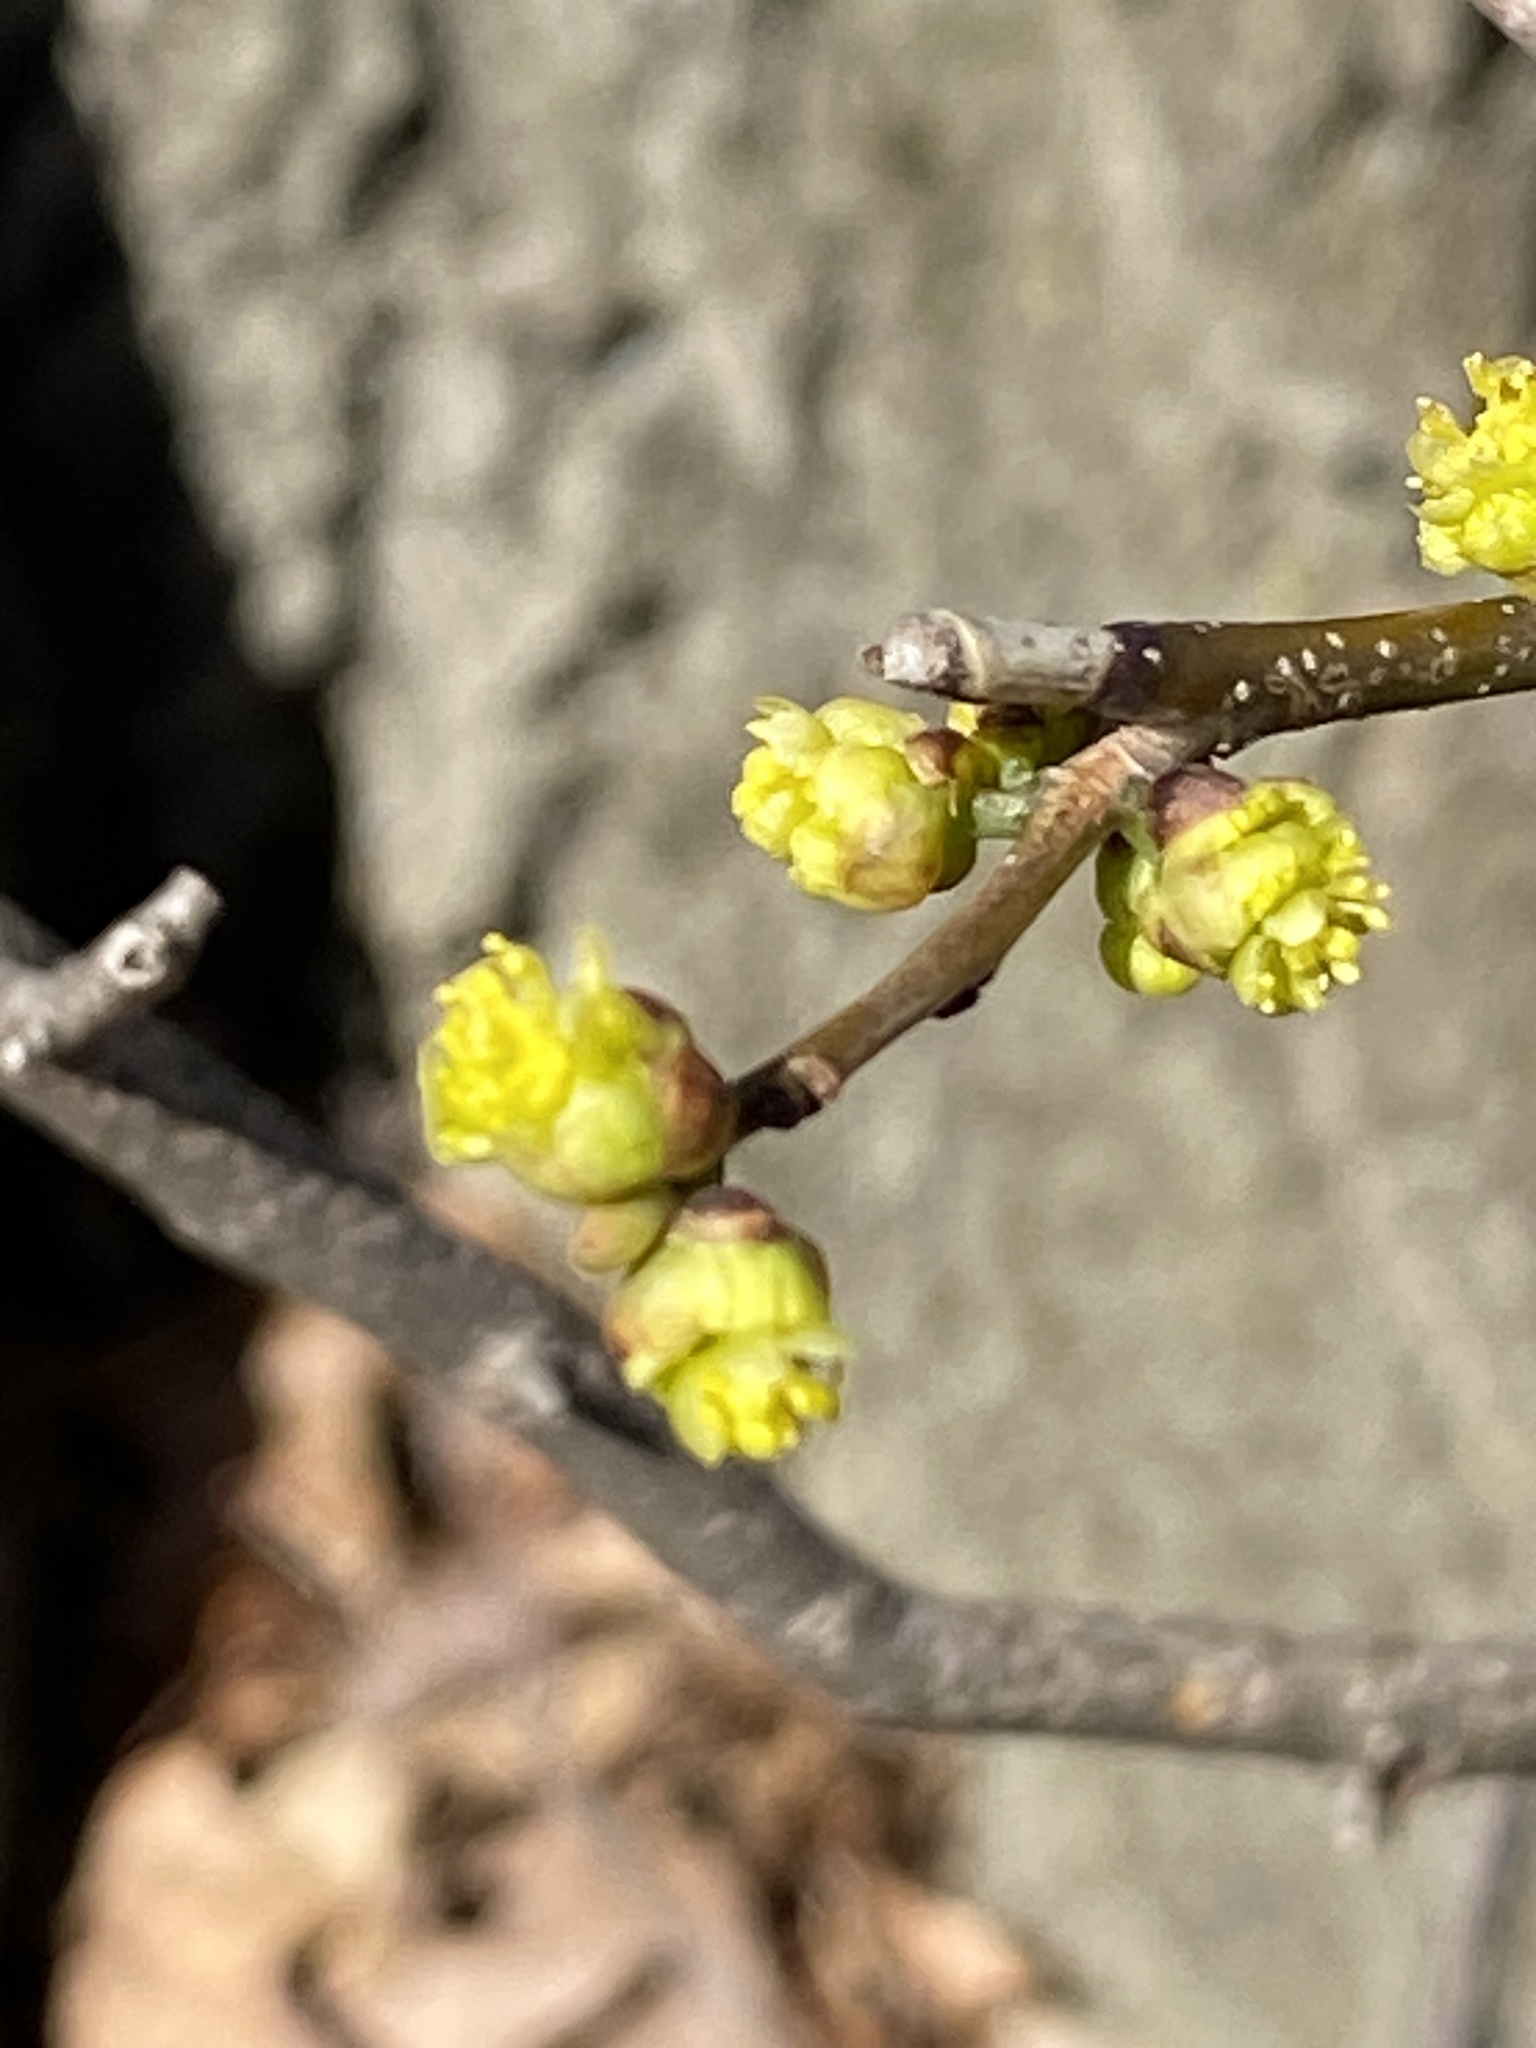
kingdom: Plantae
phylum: Tracheophyta
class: Magnoliopsida
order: Laurales
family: Lauraceae
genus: Lindera
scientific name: Lindera benzoin
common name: Spicebush
